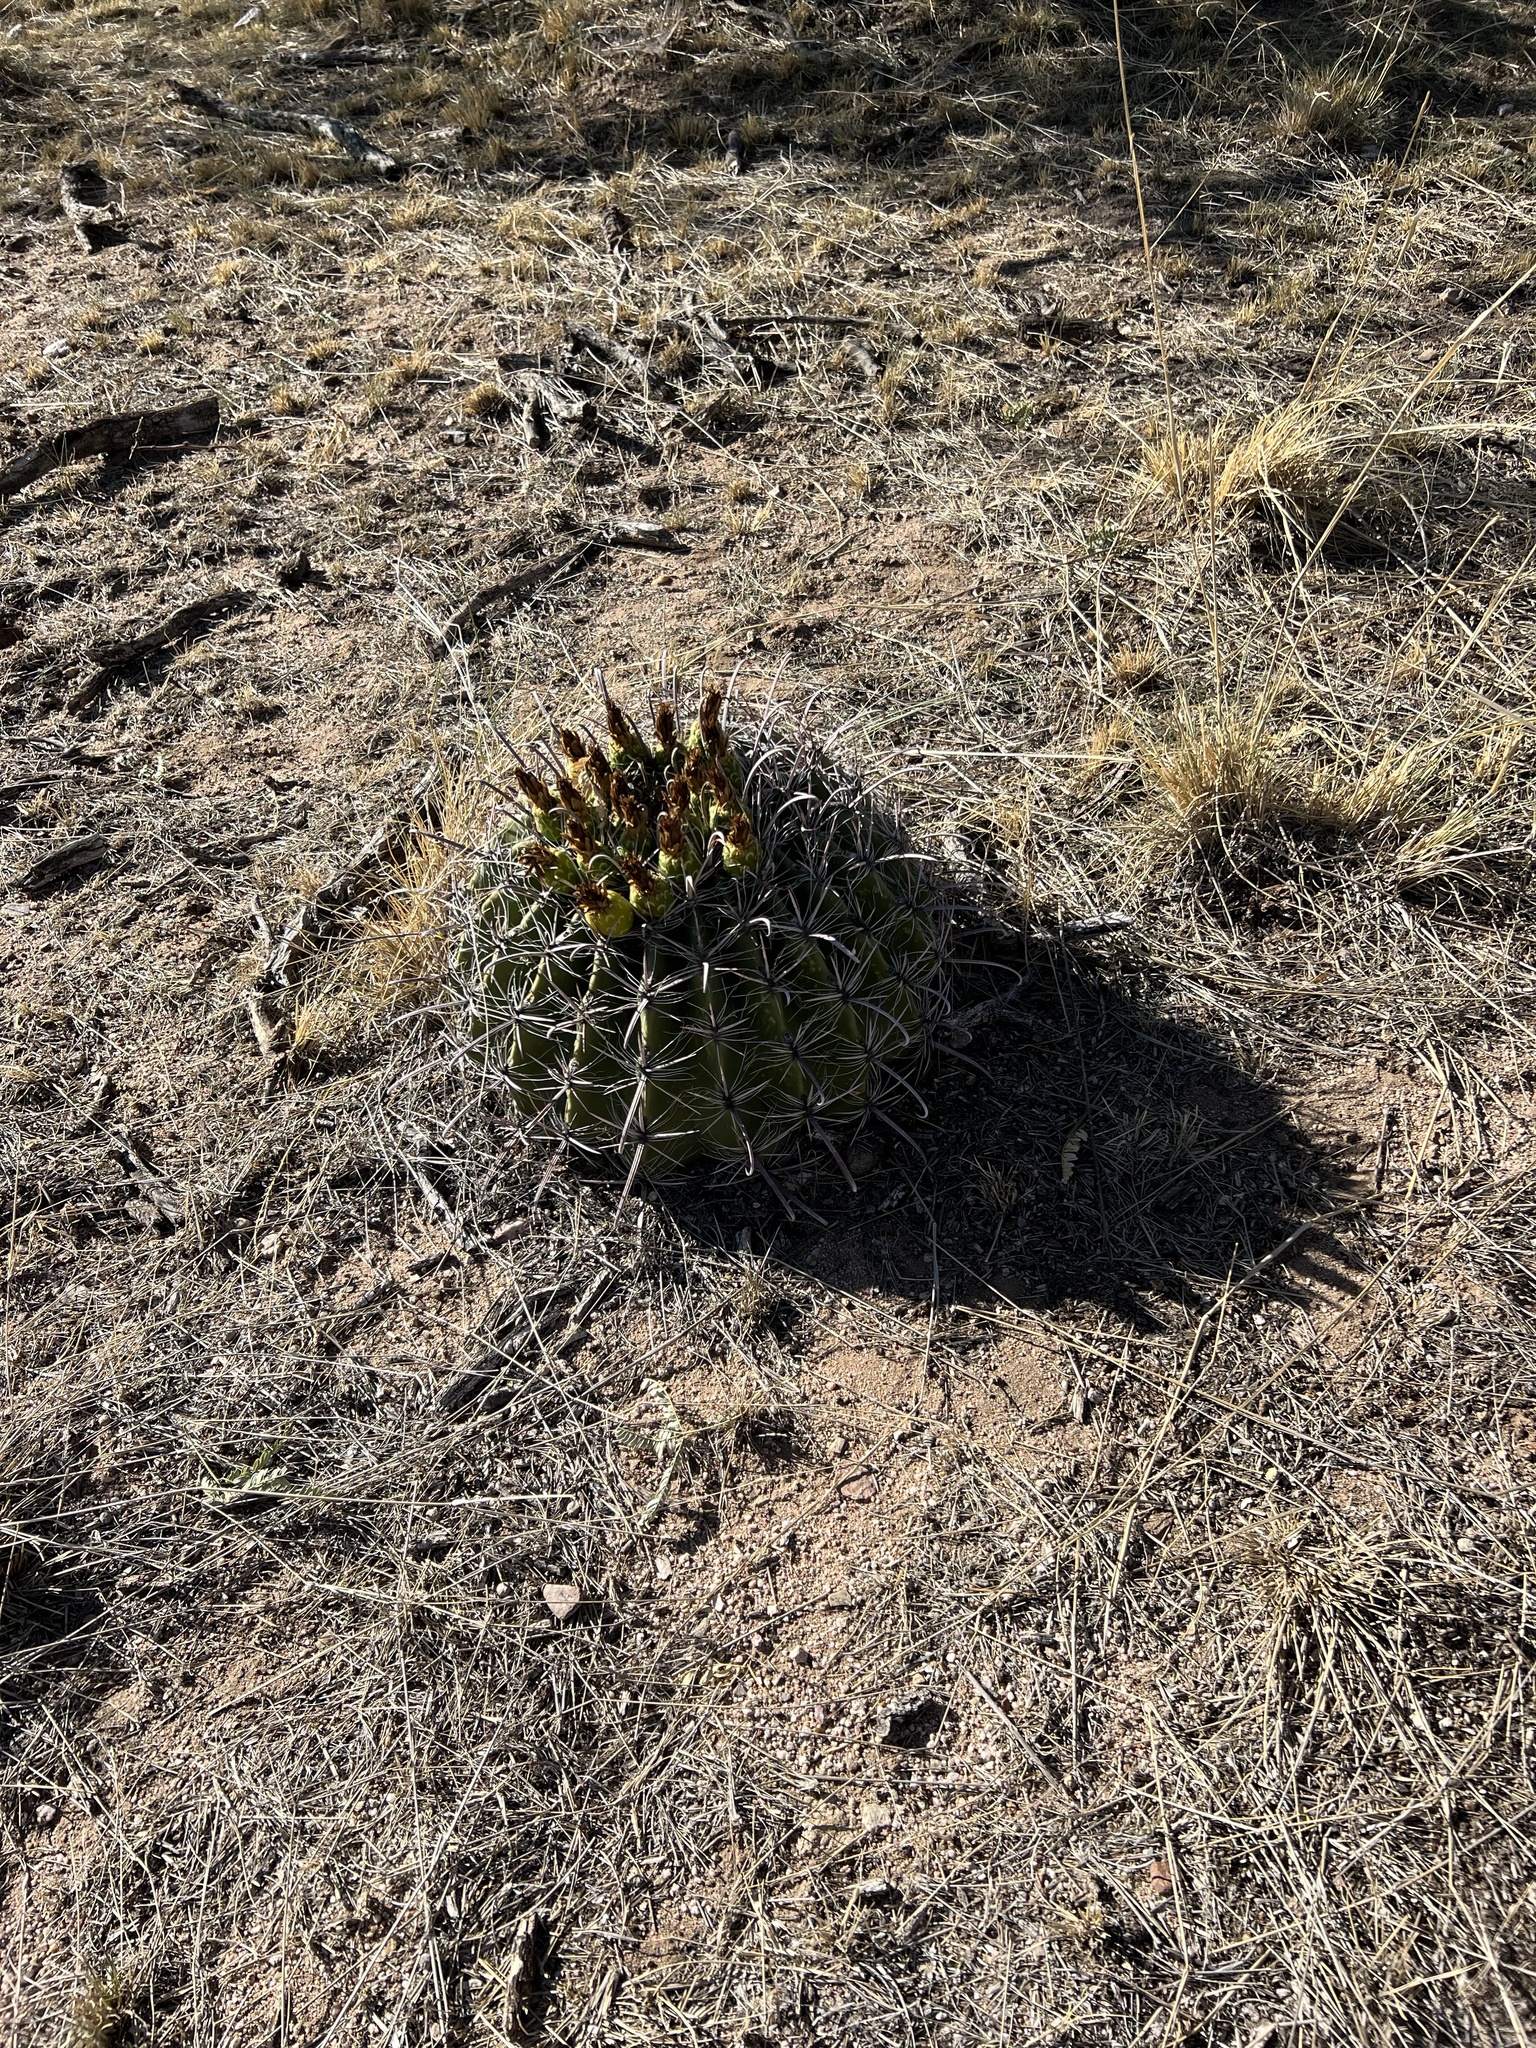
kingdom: Plantae
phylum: Tracheophyta
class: Magnoliopsida
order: Caryophyllales
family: Cactaceae
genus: Ferocactus
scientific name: Ferocactus wislizeni
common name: Candy barrel cactus
